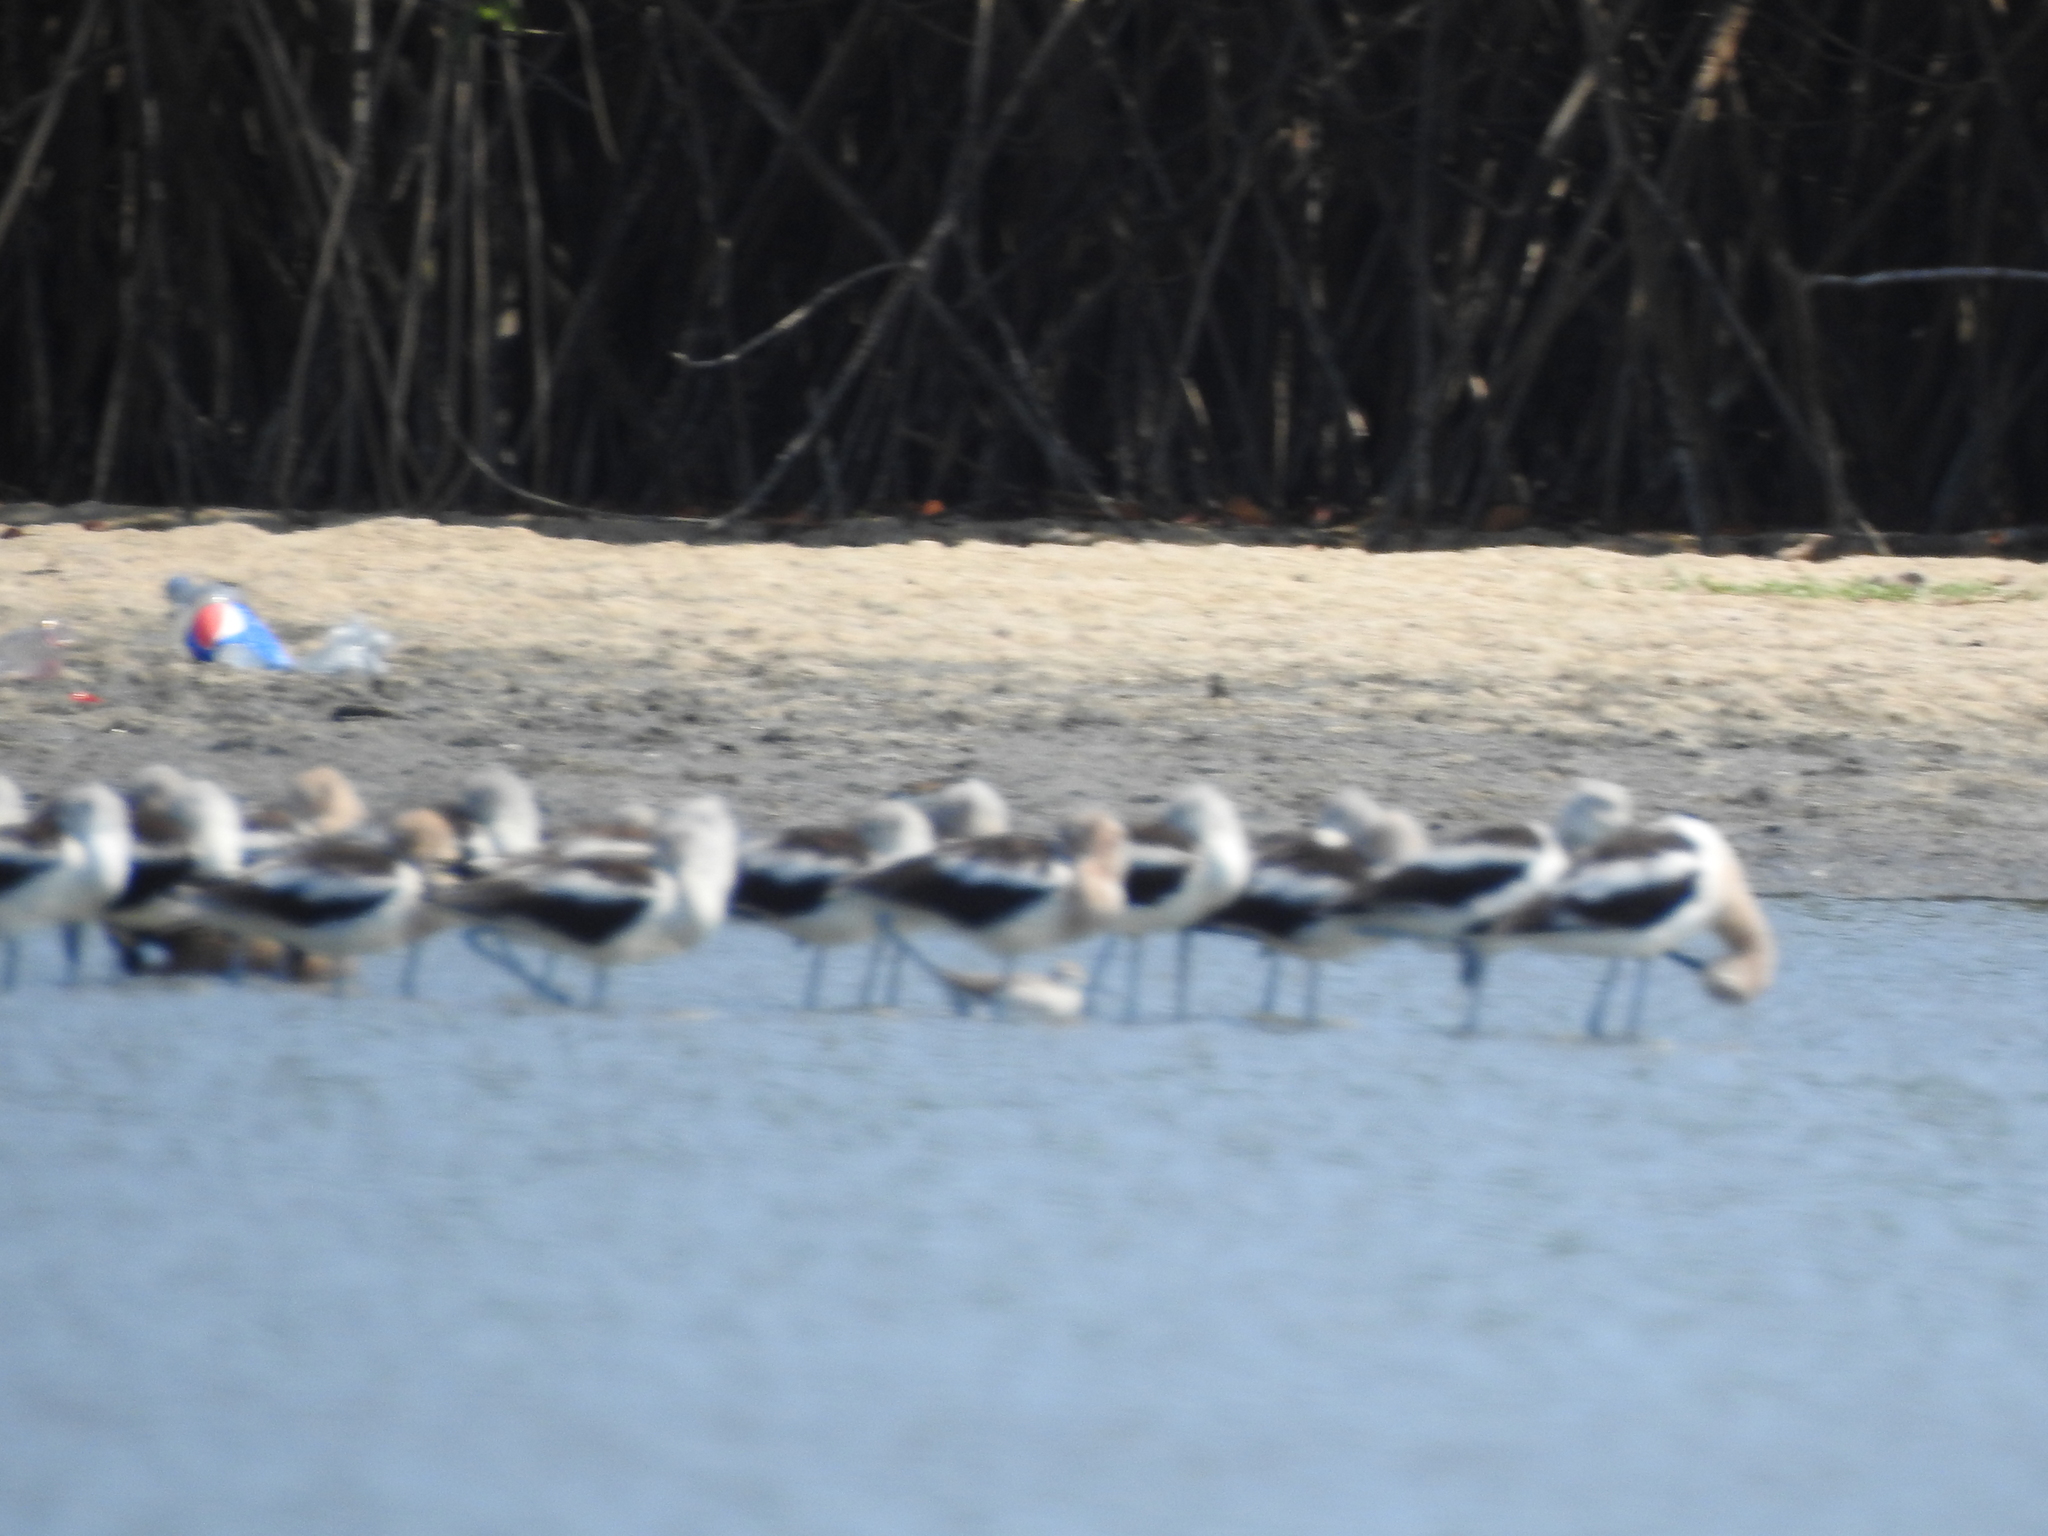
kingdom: Animalia
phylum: Chordata
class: Aves
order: Charadriiformes
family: Recurvirostridae
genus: Recurvirostra
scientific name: Recurvirostra americana
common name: American avocet
